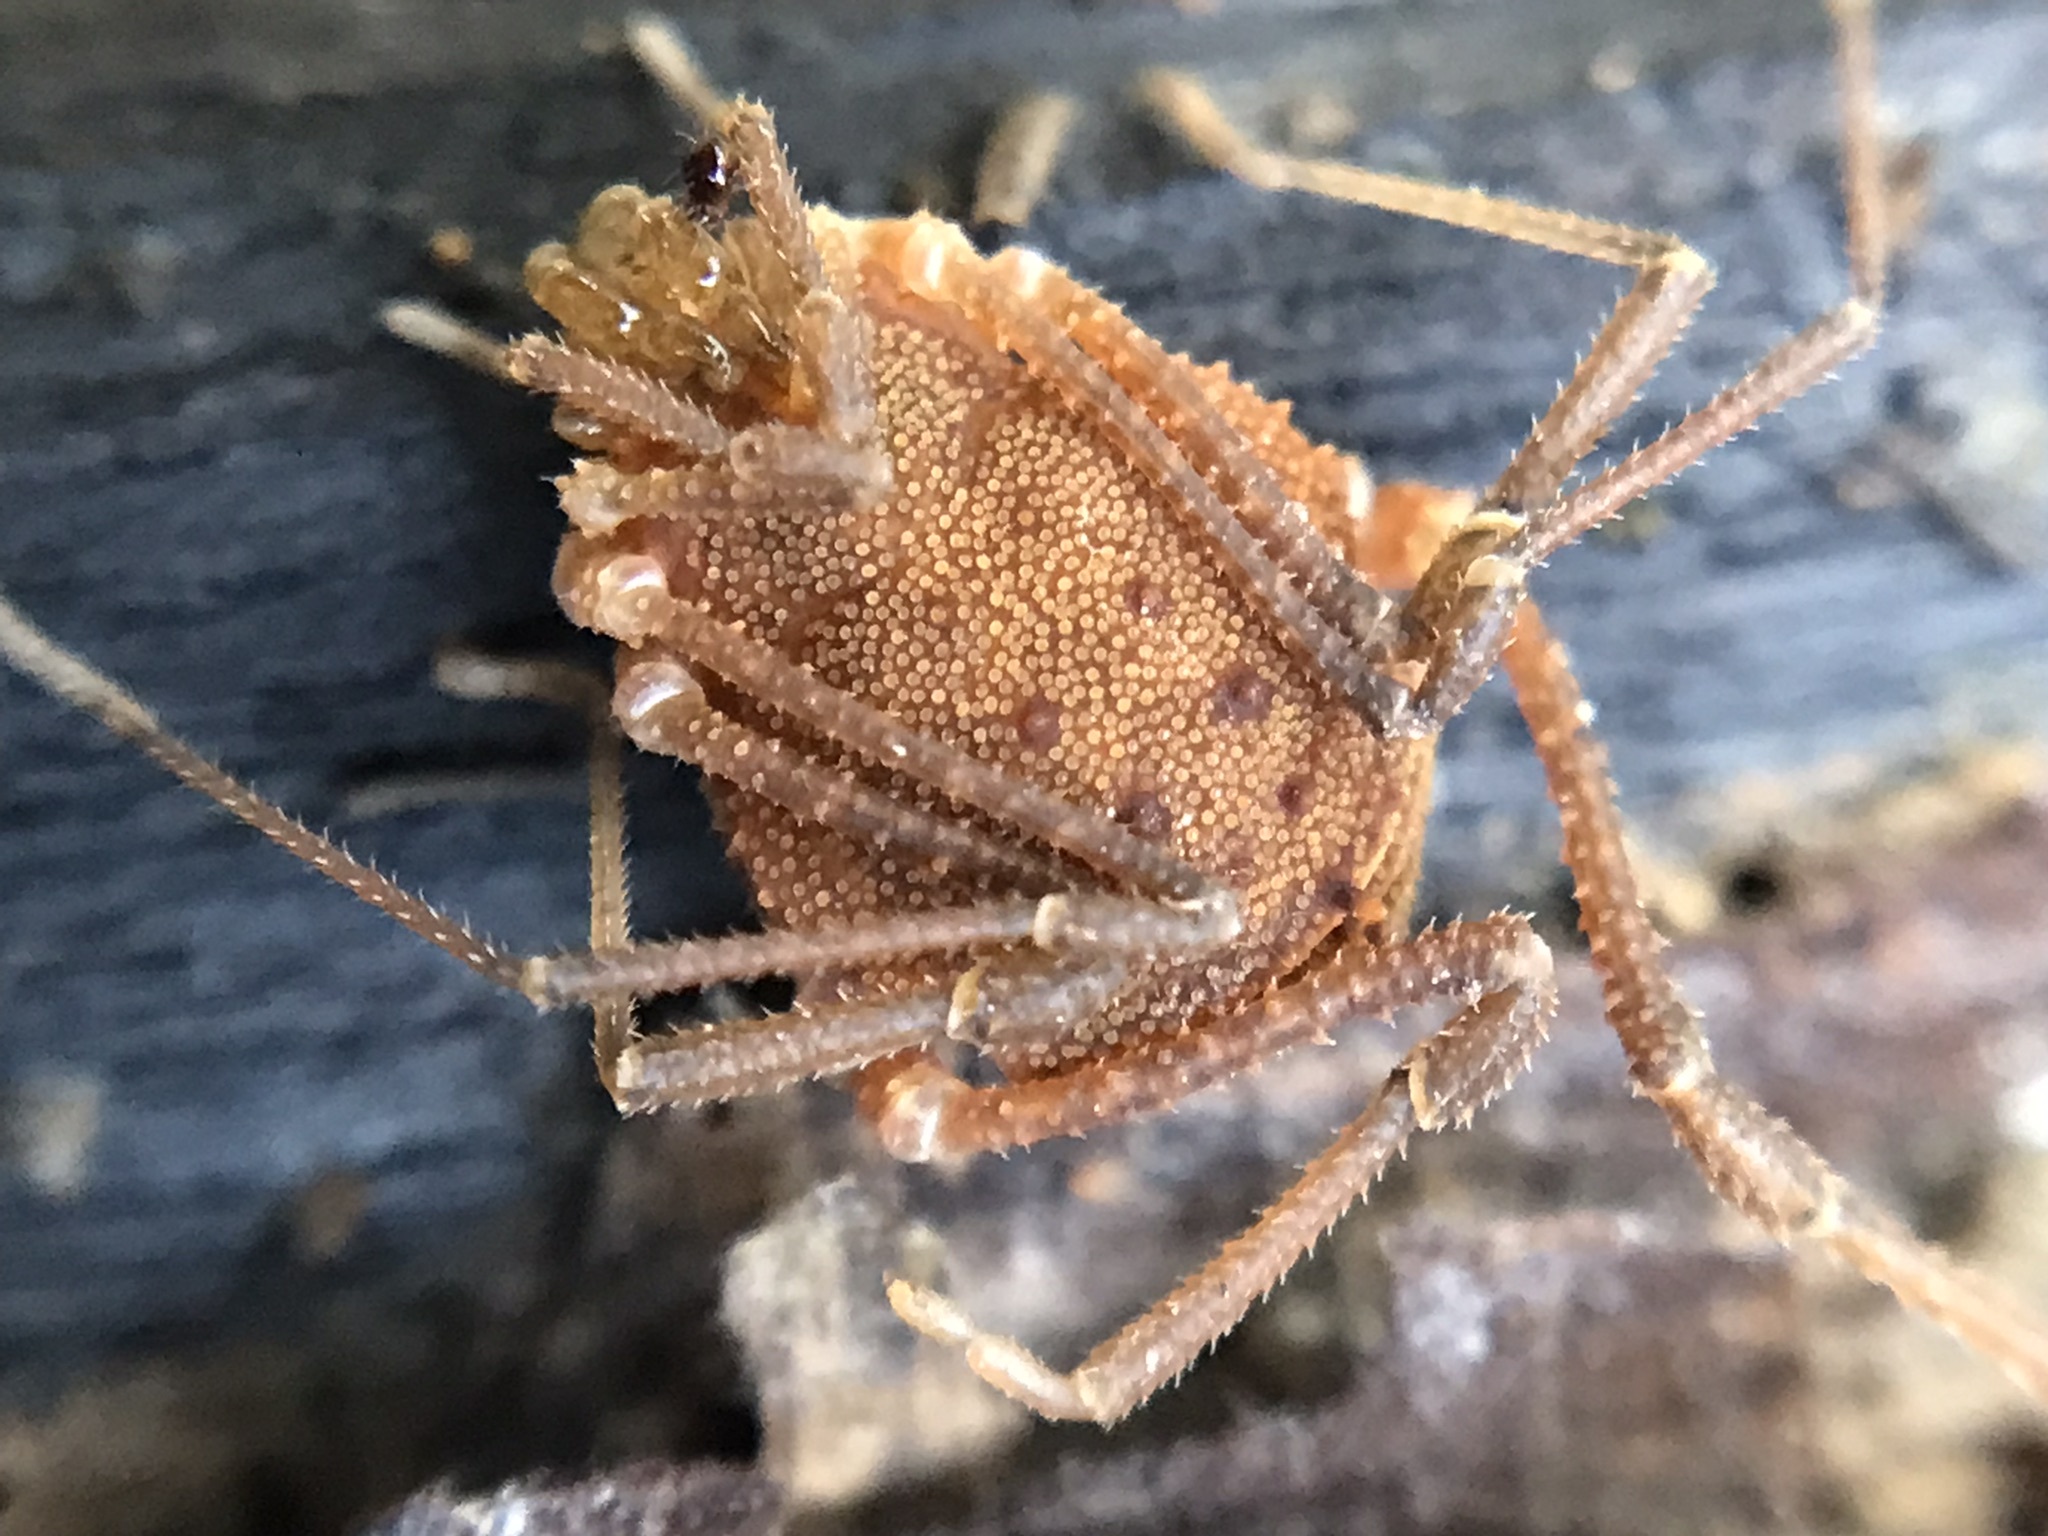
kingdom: Animalia
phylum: Arthropoda
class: Arachnida
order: Opiliones
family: Gonyleptidae
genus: Hernandaria
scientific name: Hernandaria scabricula
